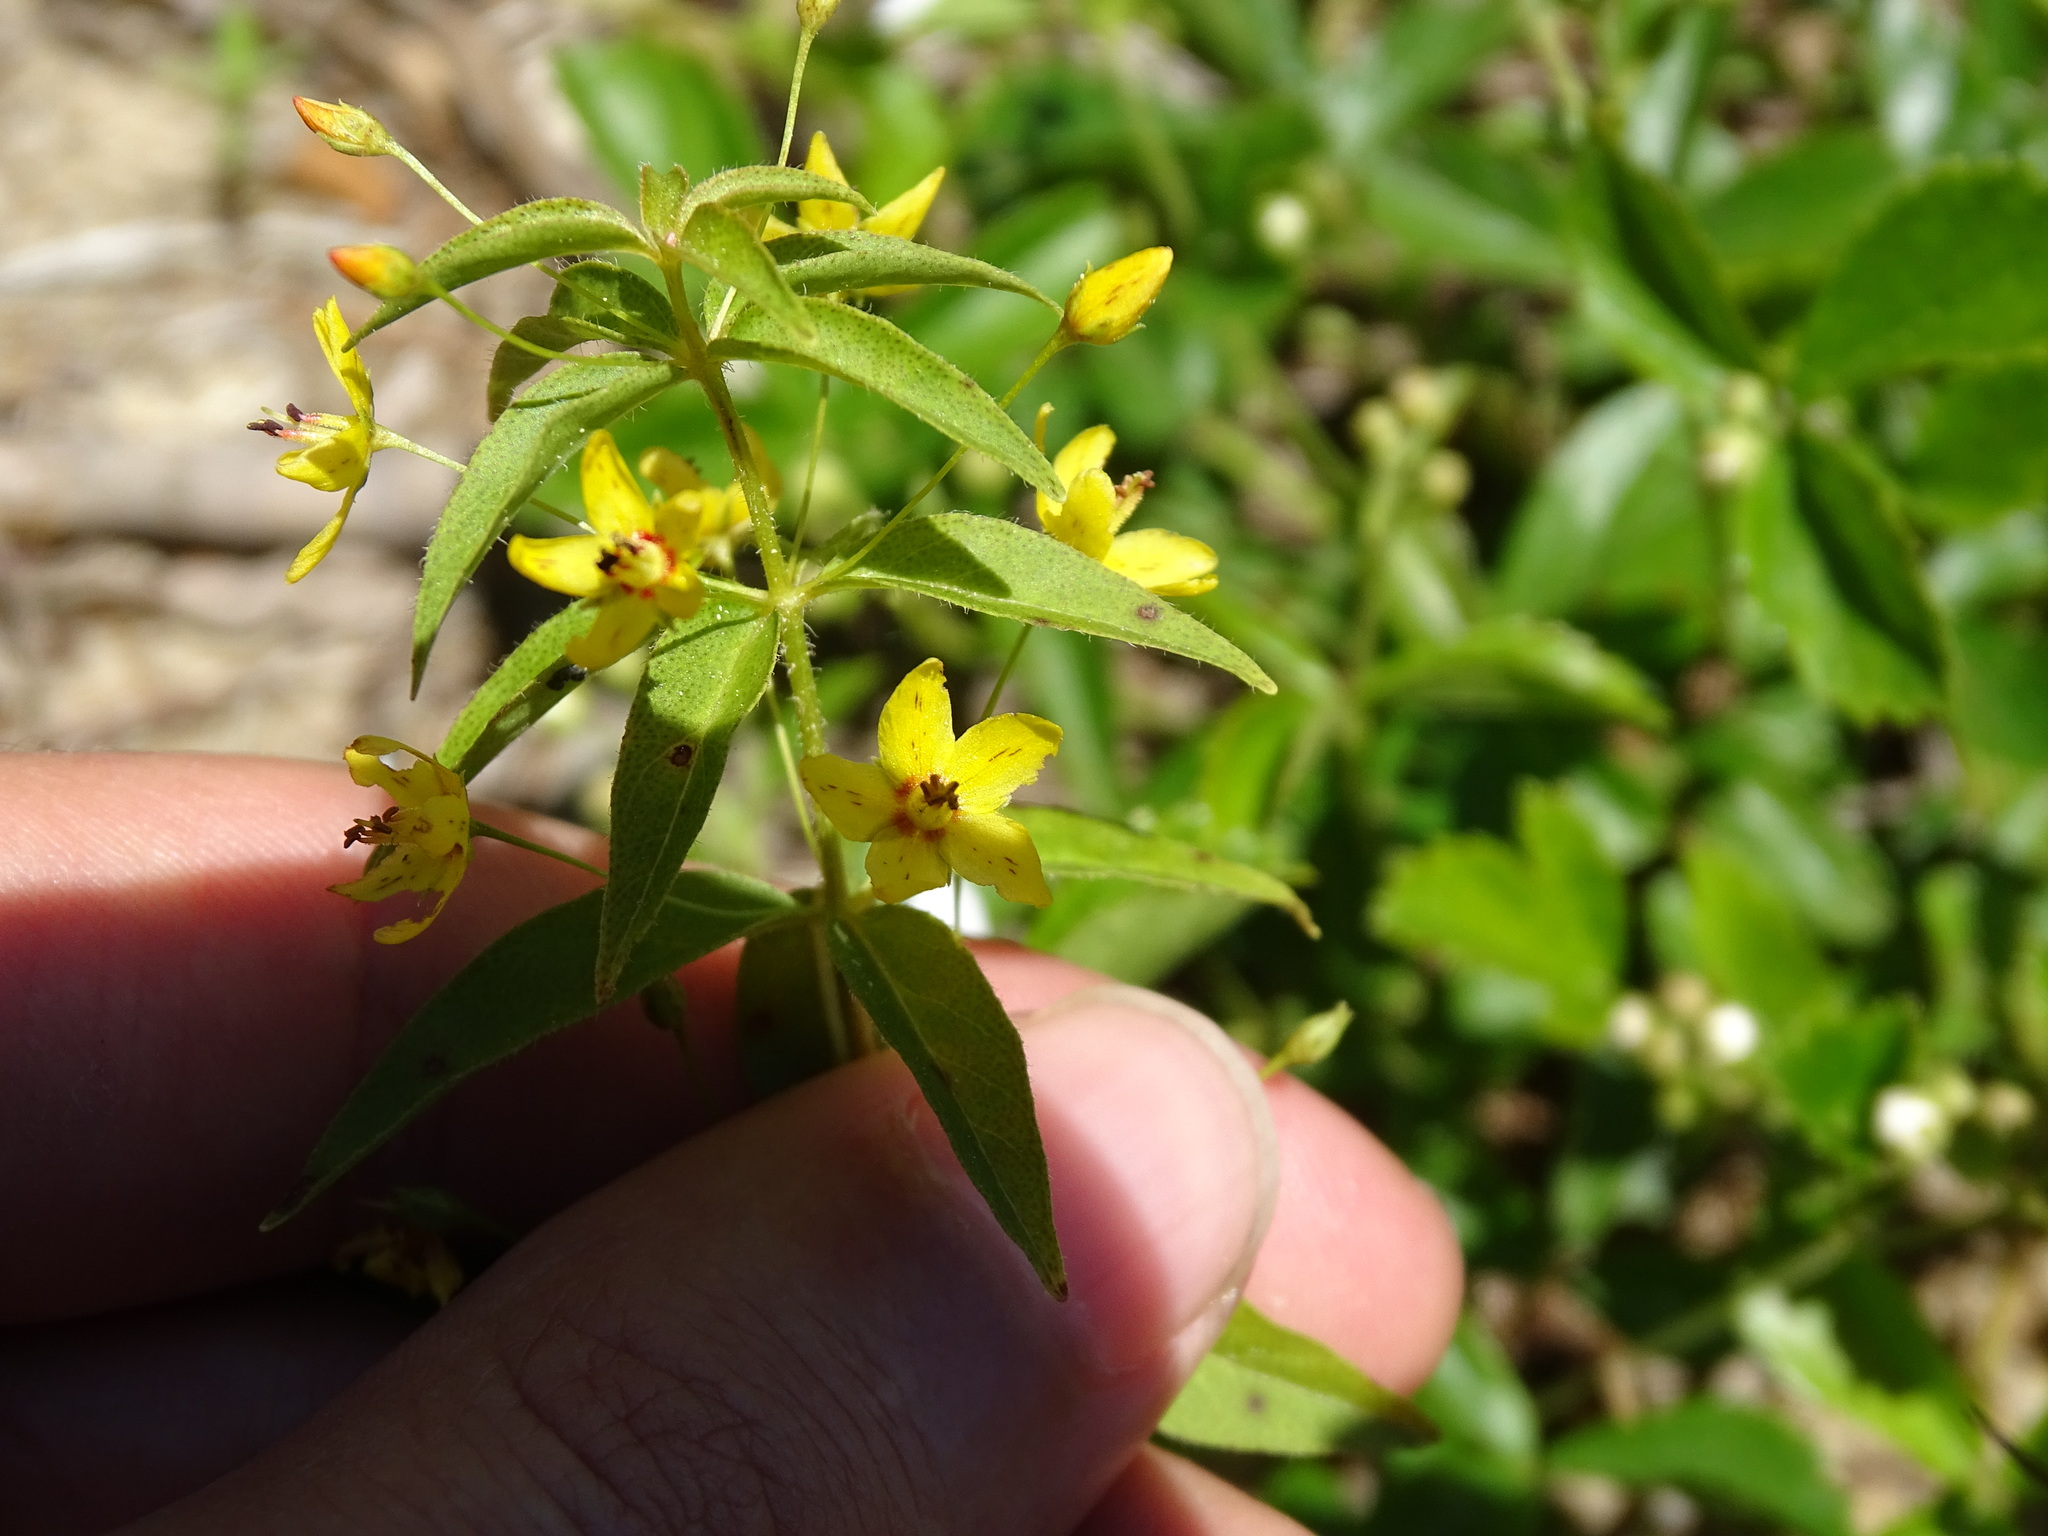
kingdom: Plantae
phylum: Tracheophyta
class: Magnoliopsida
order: Ericales
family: Primulaceae
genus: Lysimachia
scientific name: Lysimachia quadrifolia
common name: Whorled loosestrife
